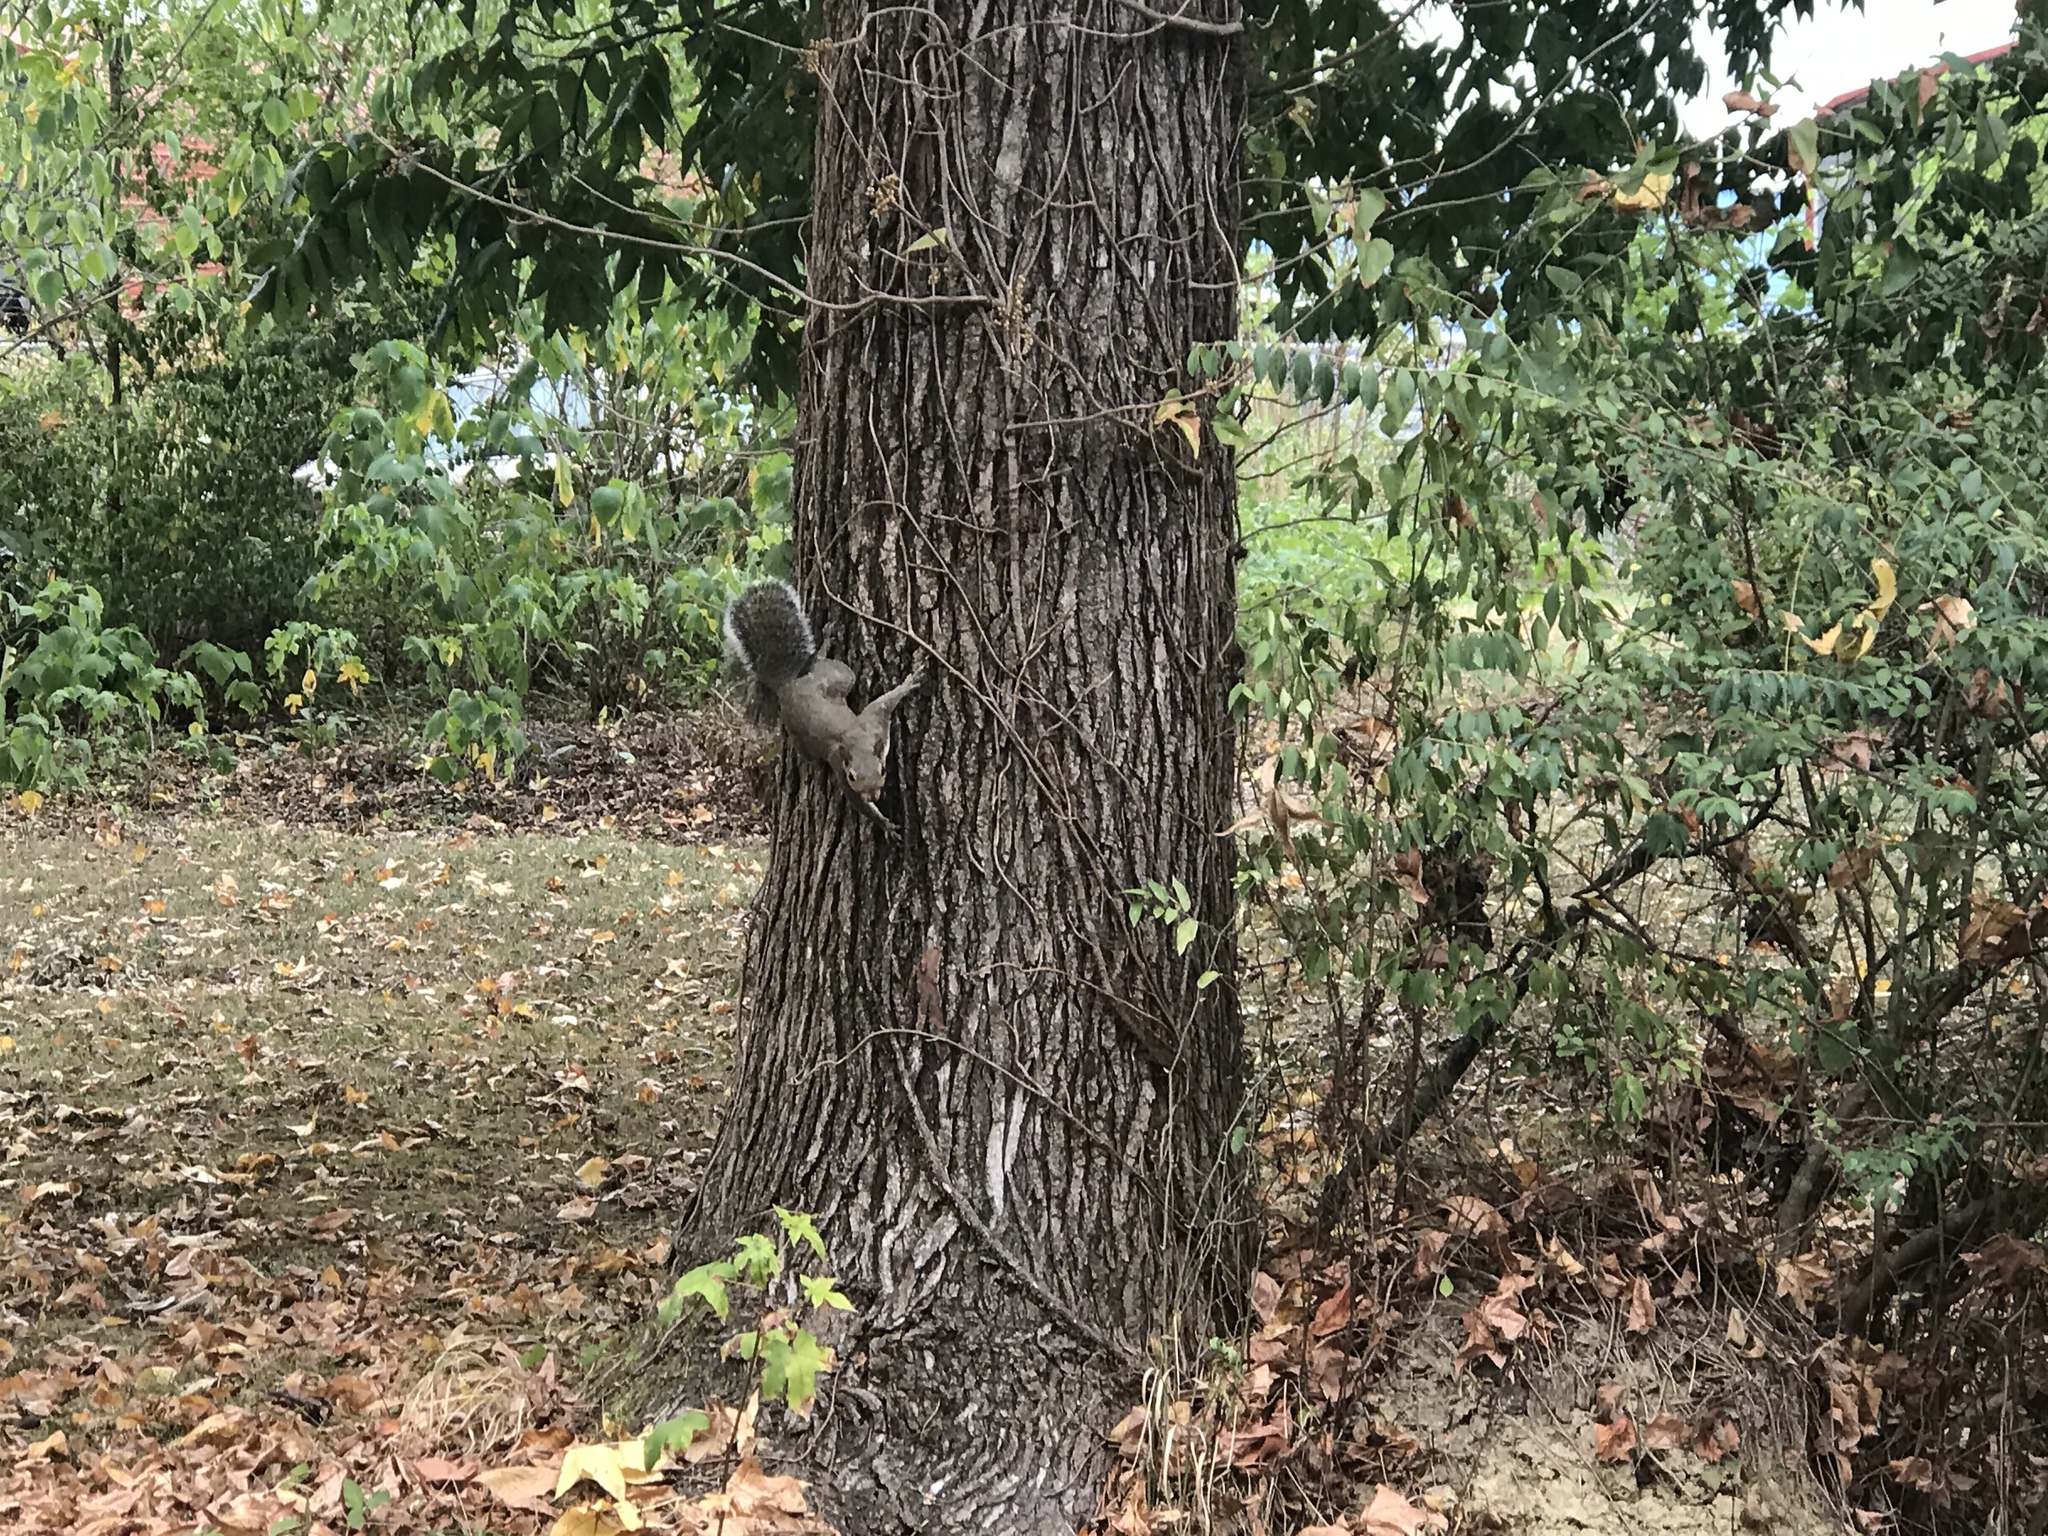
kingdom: Animalia
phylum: Chordata
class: Mammalia
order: Rodentia
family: Sciuridae
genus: Sciurus
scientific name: Sciurus carolinensis
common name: Eastern gray squirrel
